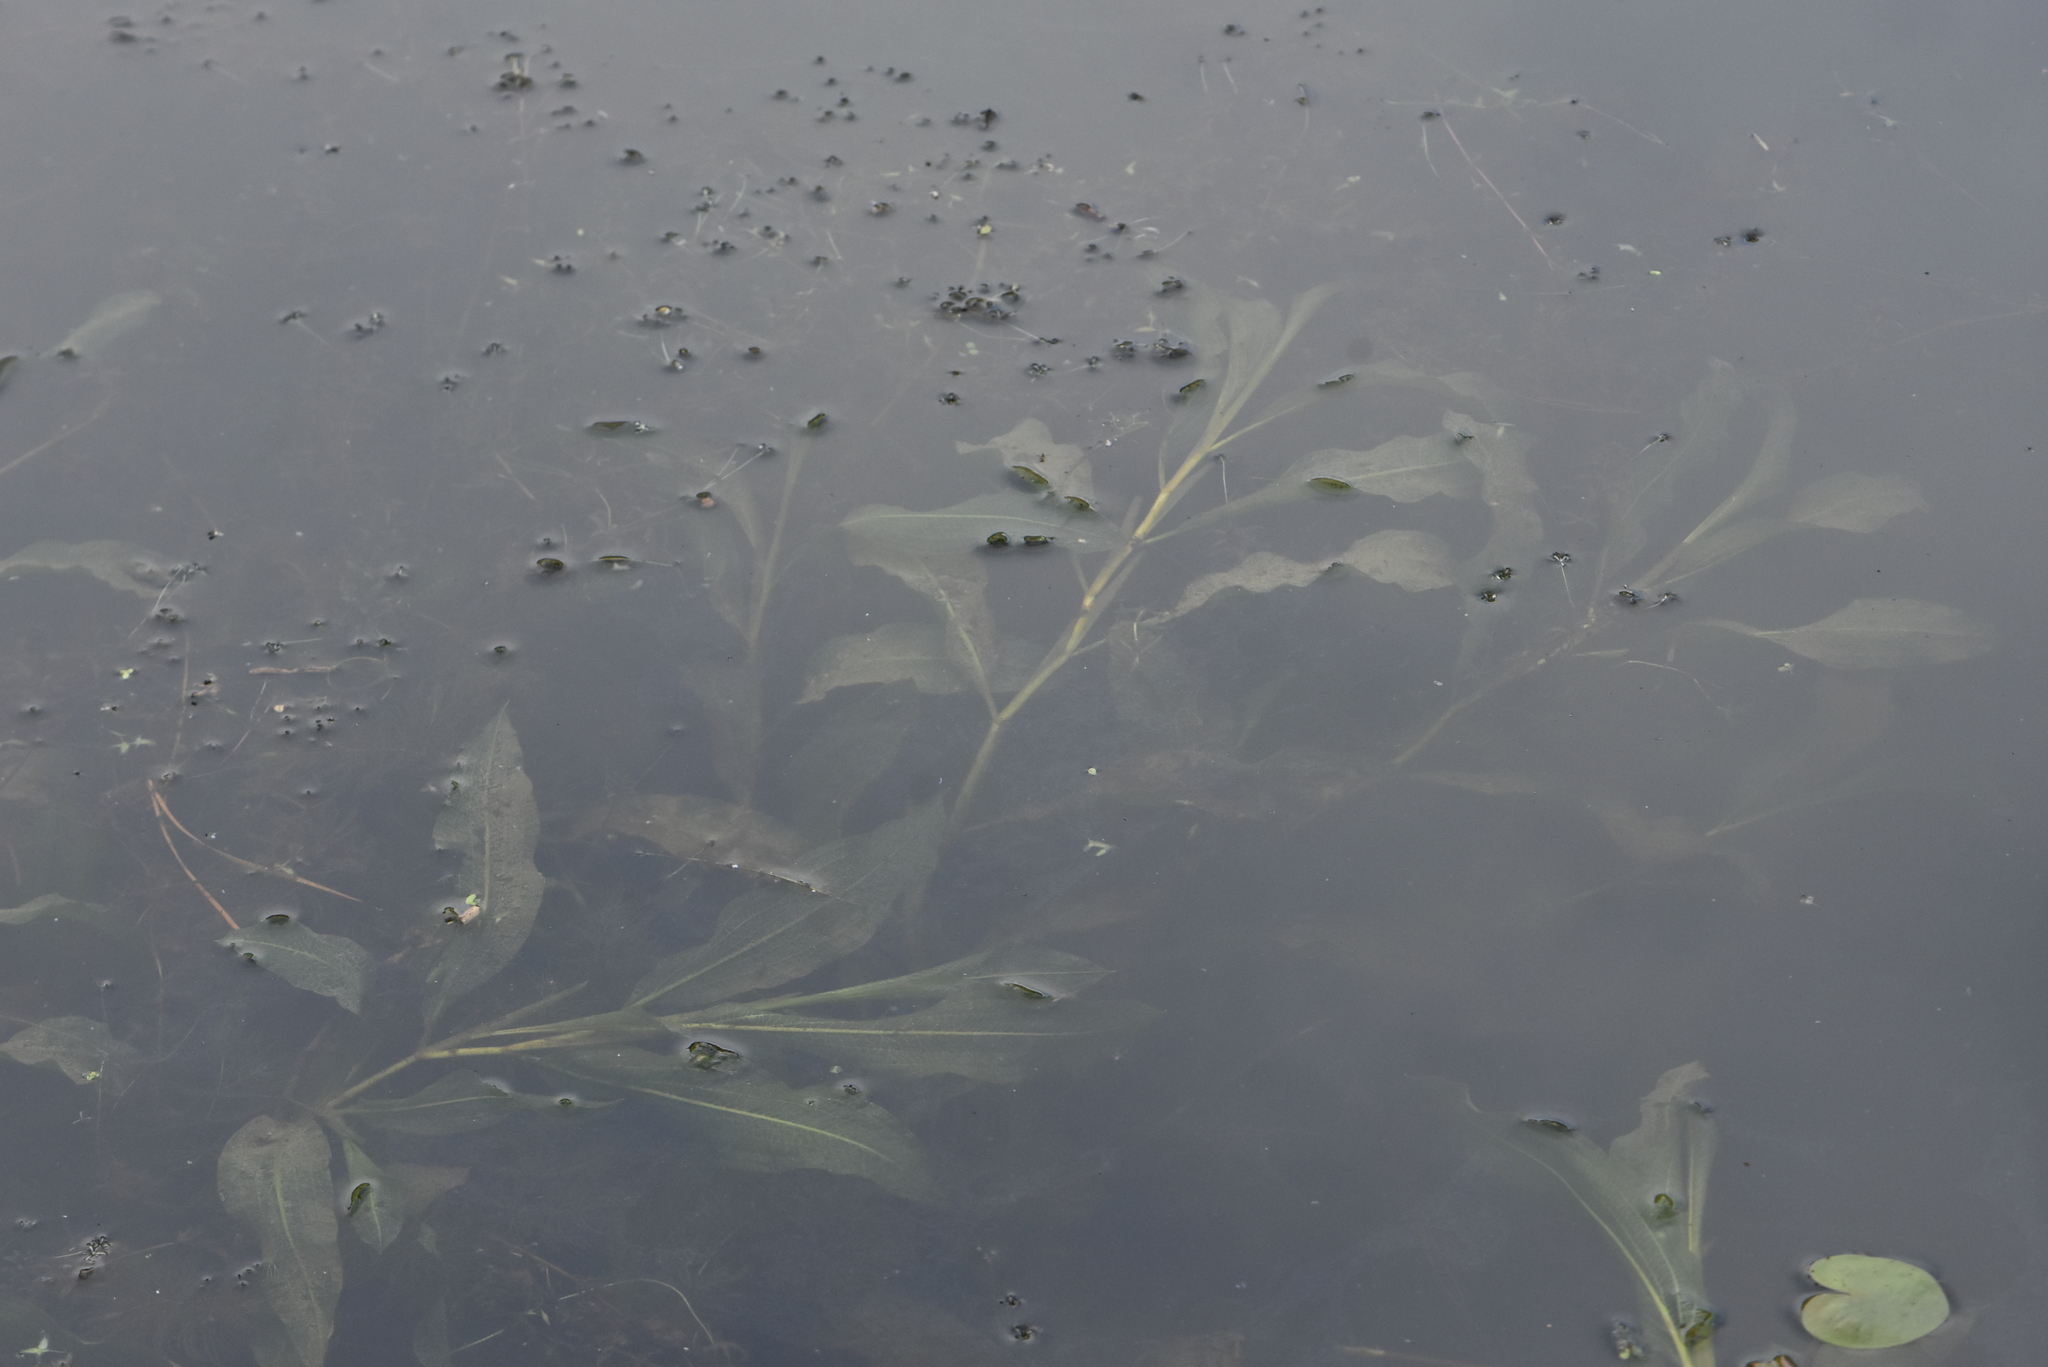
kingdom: Plantae
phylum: Tracheophyta
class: Liliopsida
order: Alismatales
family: Potamogetonaceae
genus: Potamogeton
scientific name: Potamogeton lucens
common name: Shining pondweed
